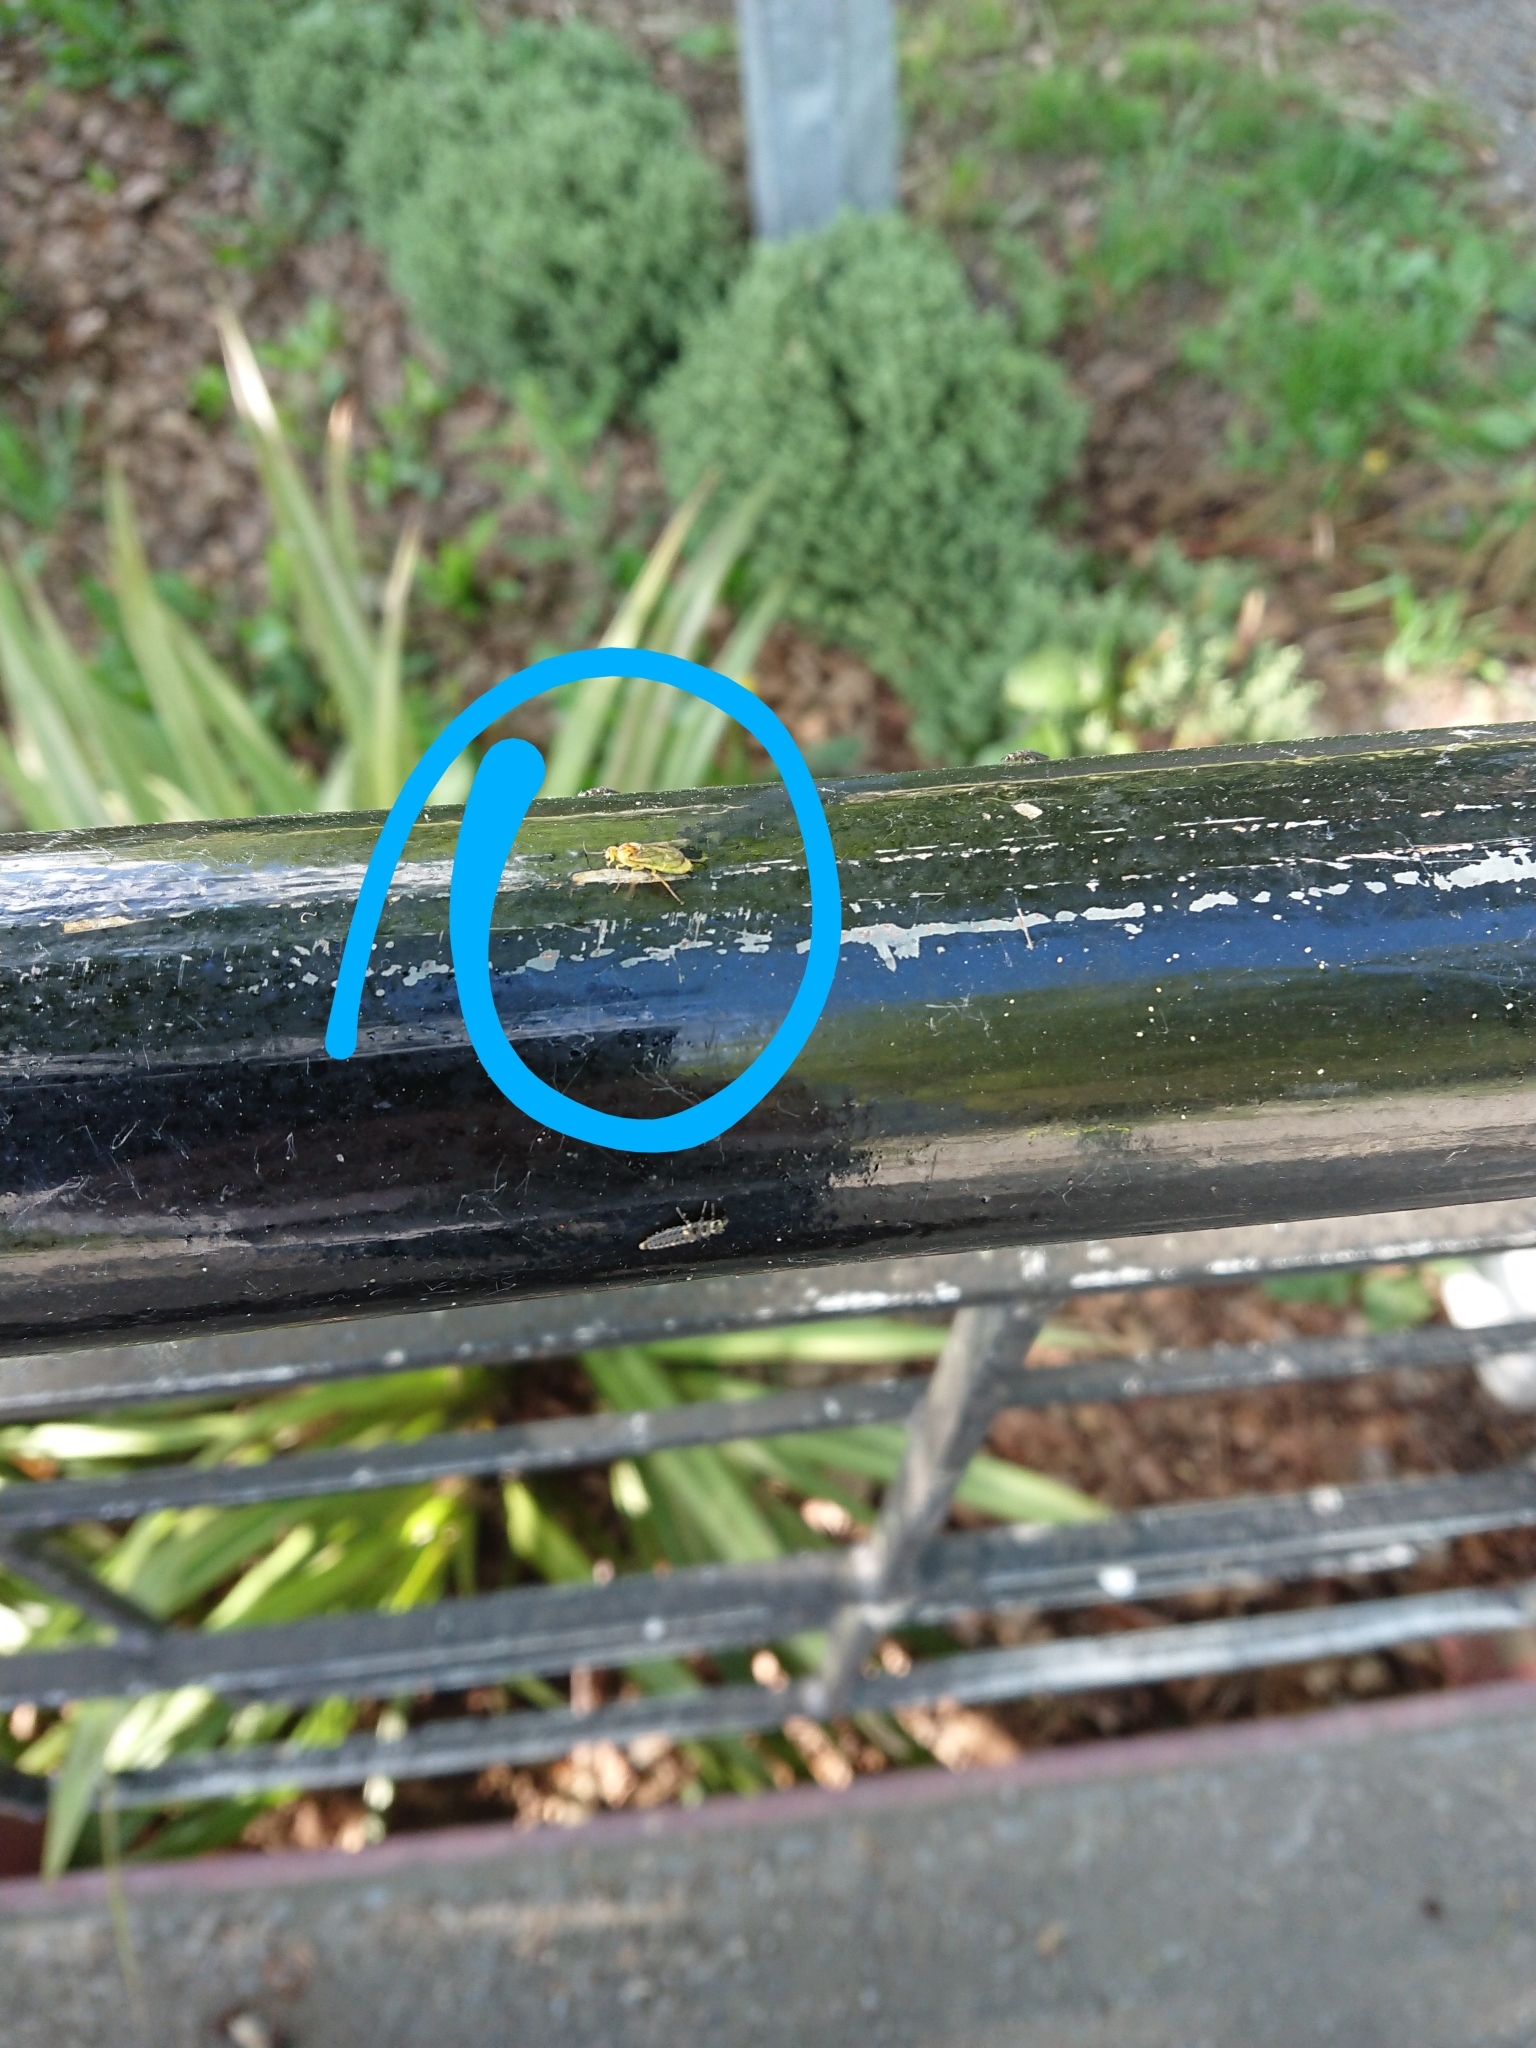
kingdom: Animalia
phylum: Arthropoda
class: Insecta
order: Hymenoptera
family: Tenthredinidae
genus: Nematus
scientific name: Nematus respondens
